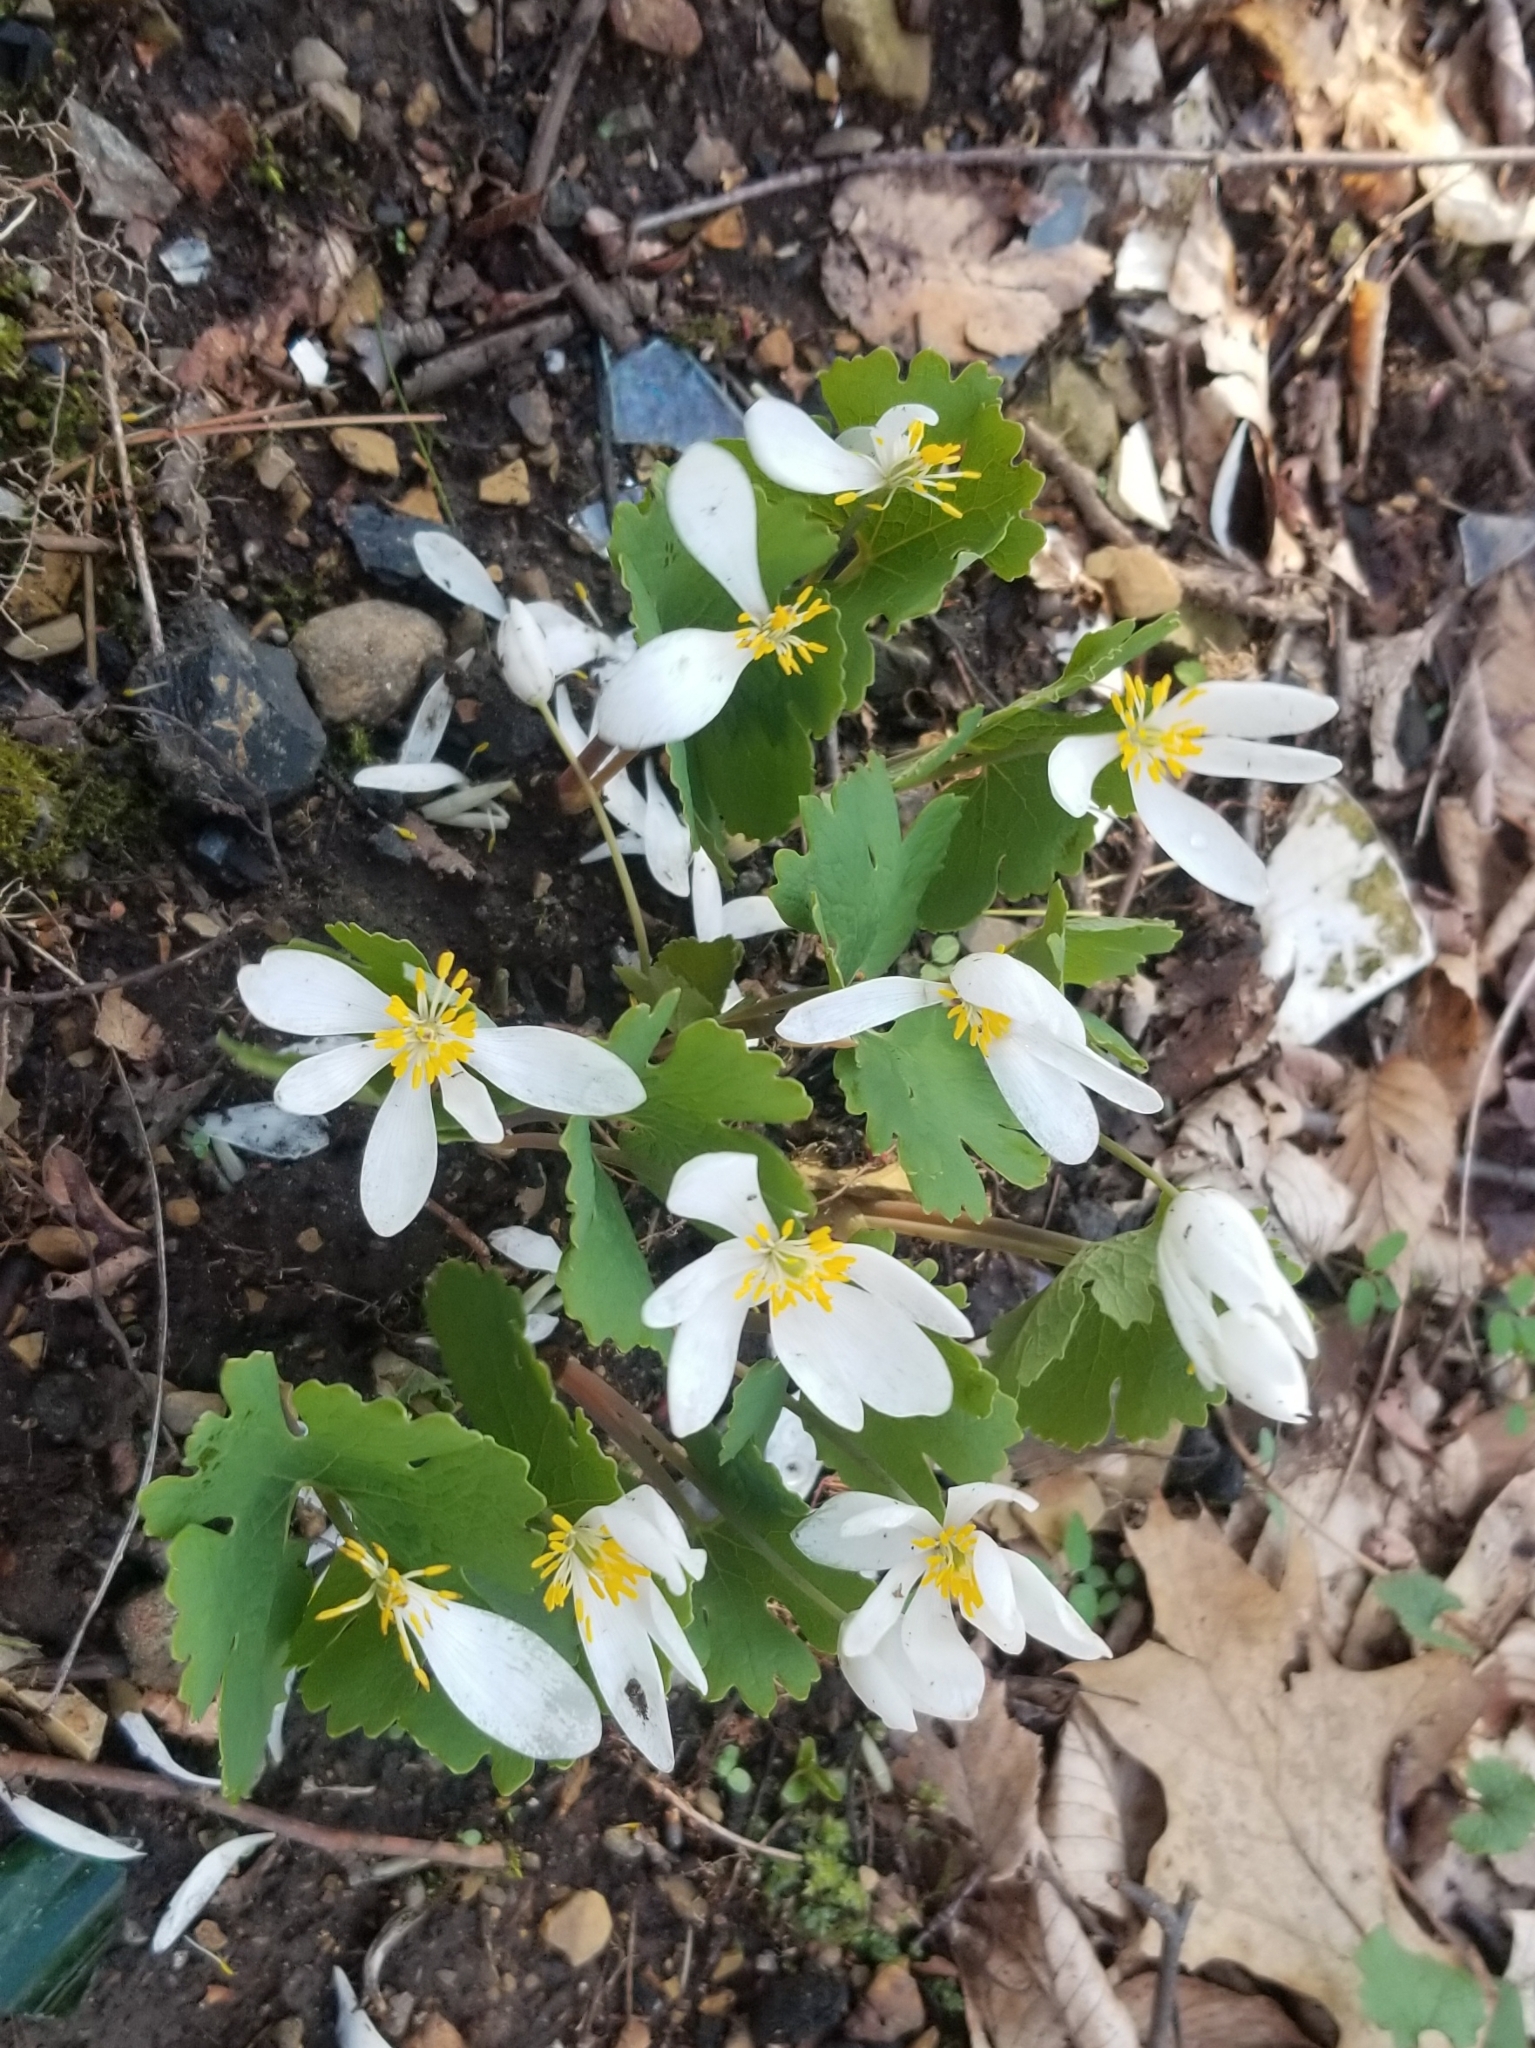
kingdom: Plantae
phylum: Tracheophyta
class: Magnoliopsida
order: Ranunculales
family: Papaveraceae
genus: Sanguinaria
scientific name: Sanguinaria canadensis
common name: Bloodroot
